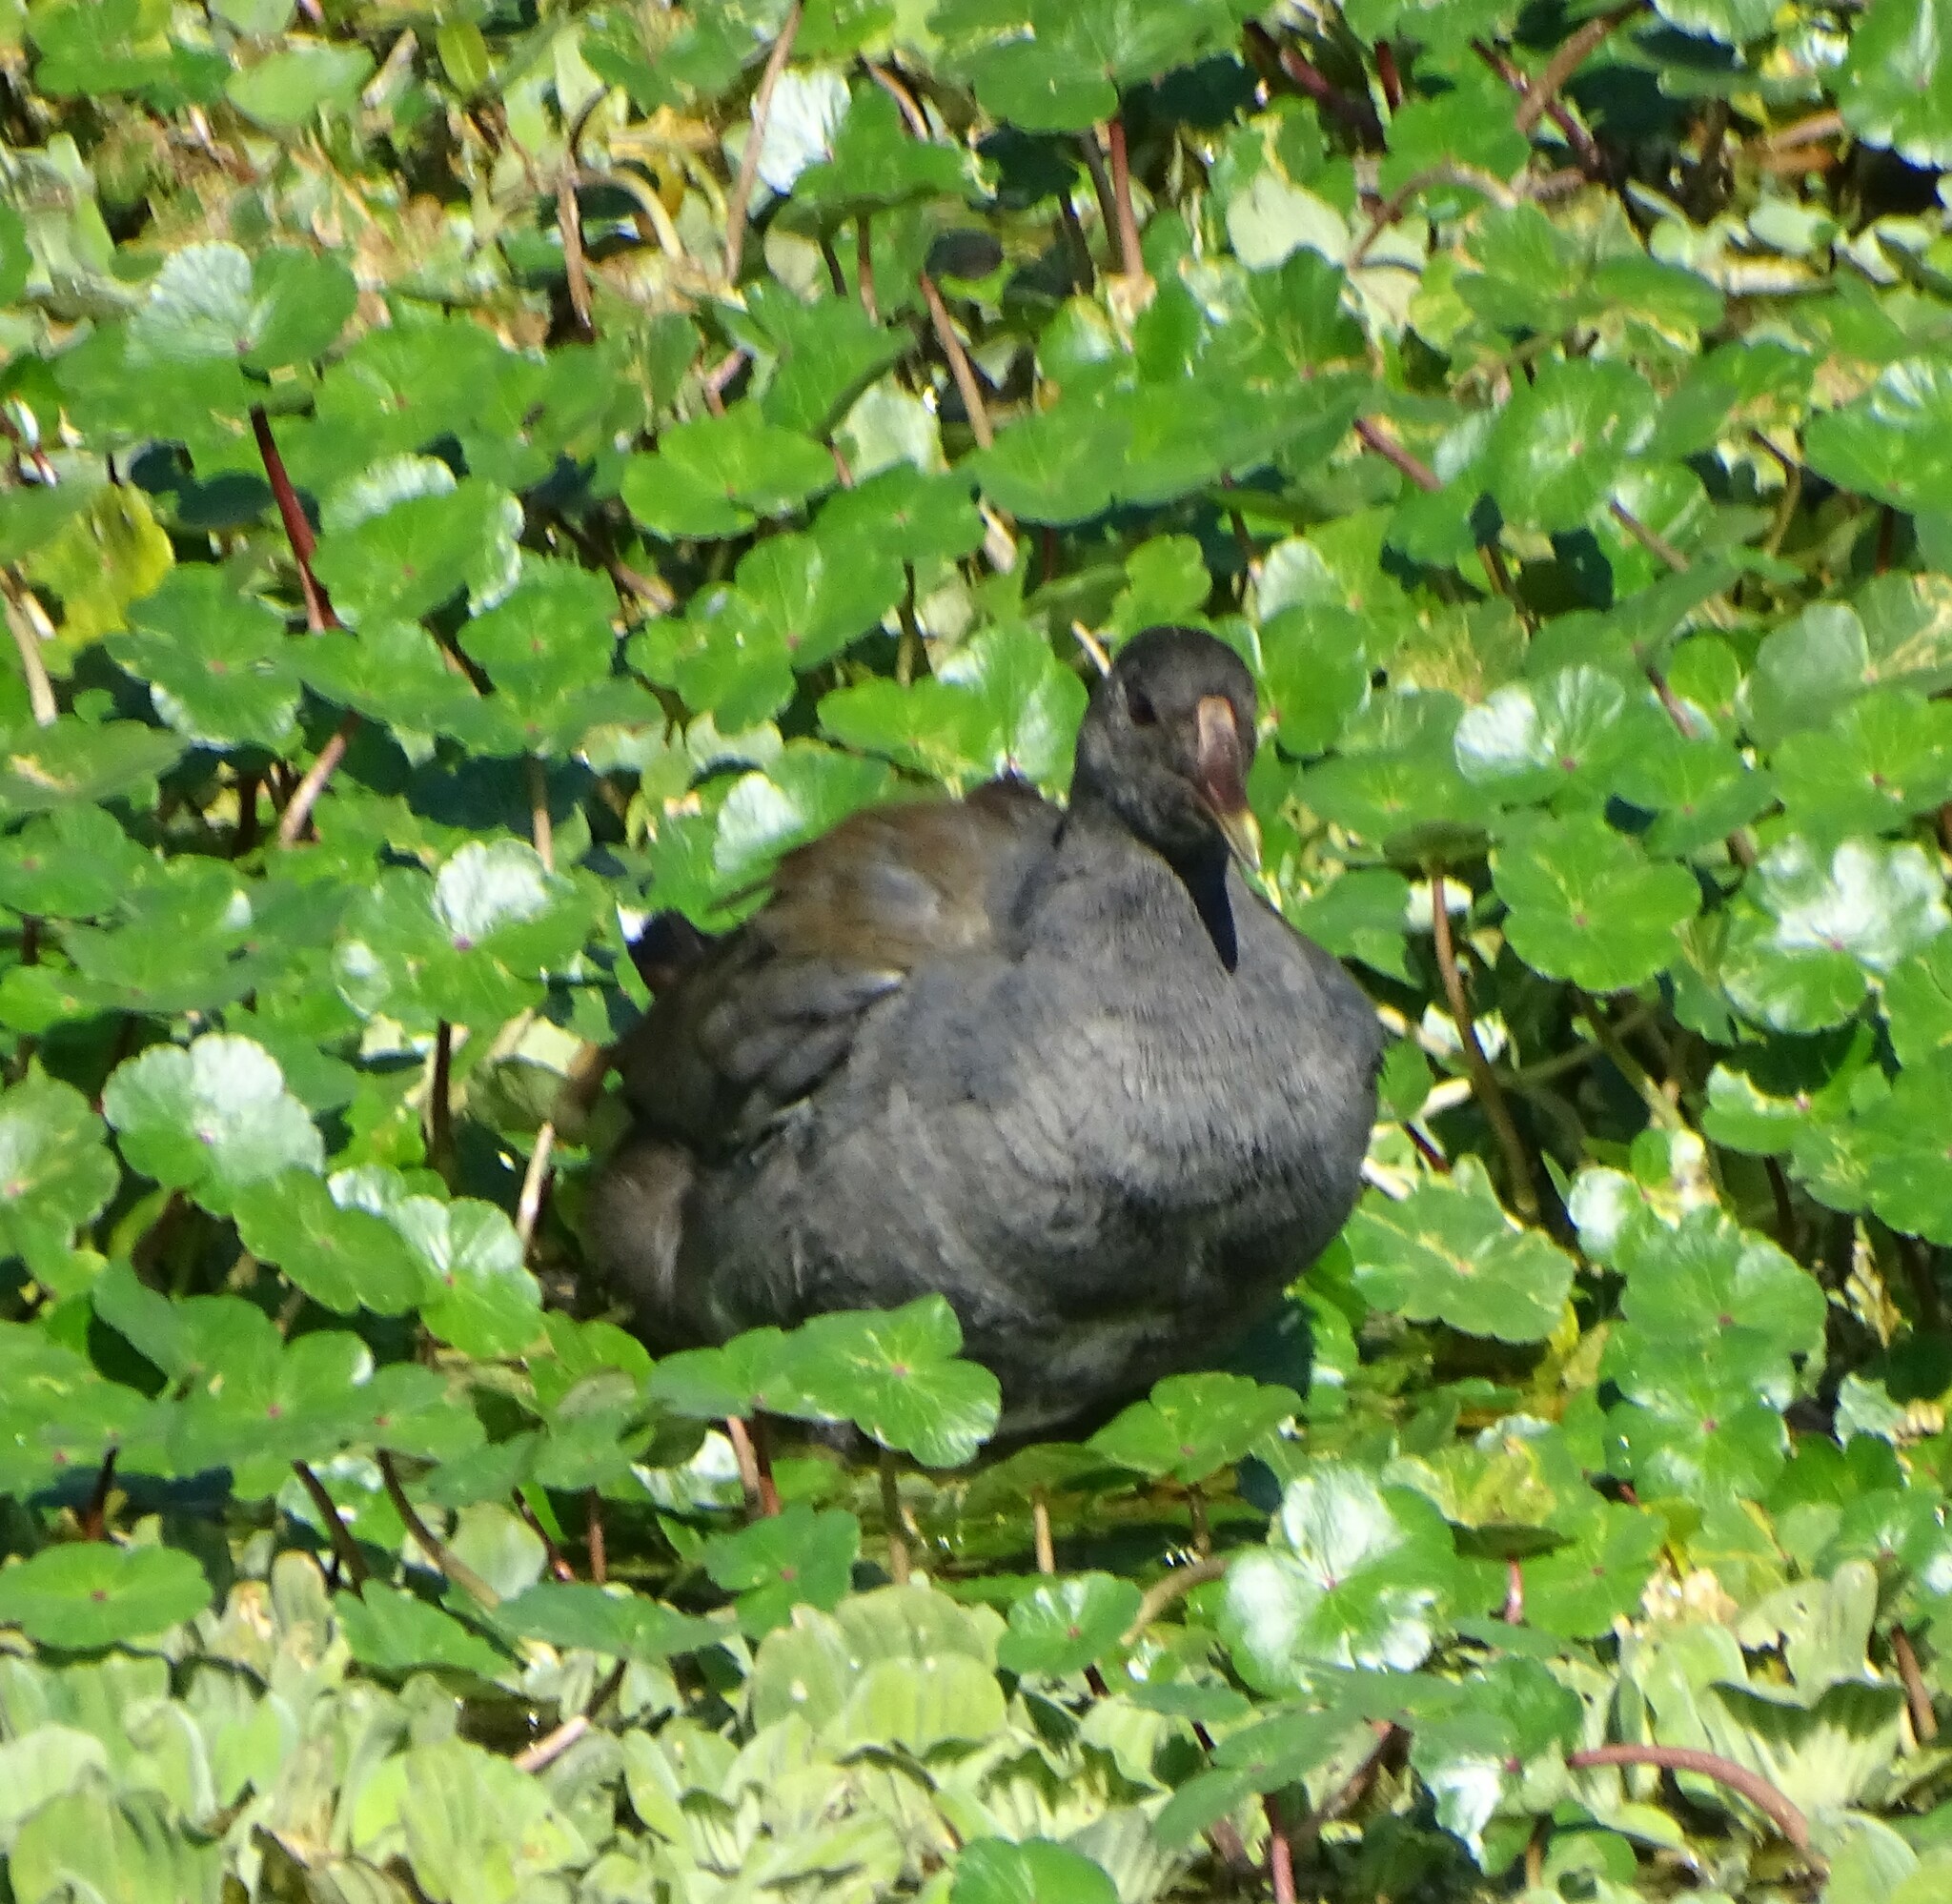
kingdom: Animalia
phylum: Chordata
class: Aves
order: Gruiformes
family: Rallidae
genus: Gallinula
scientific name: Gallinula chloropus
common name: Common moorhen
